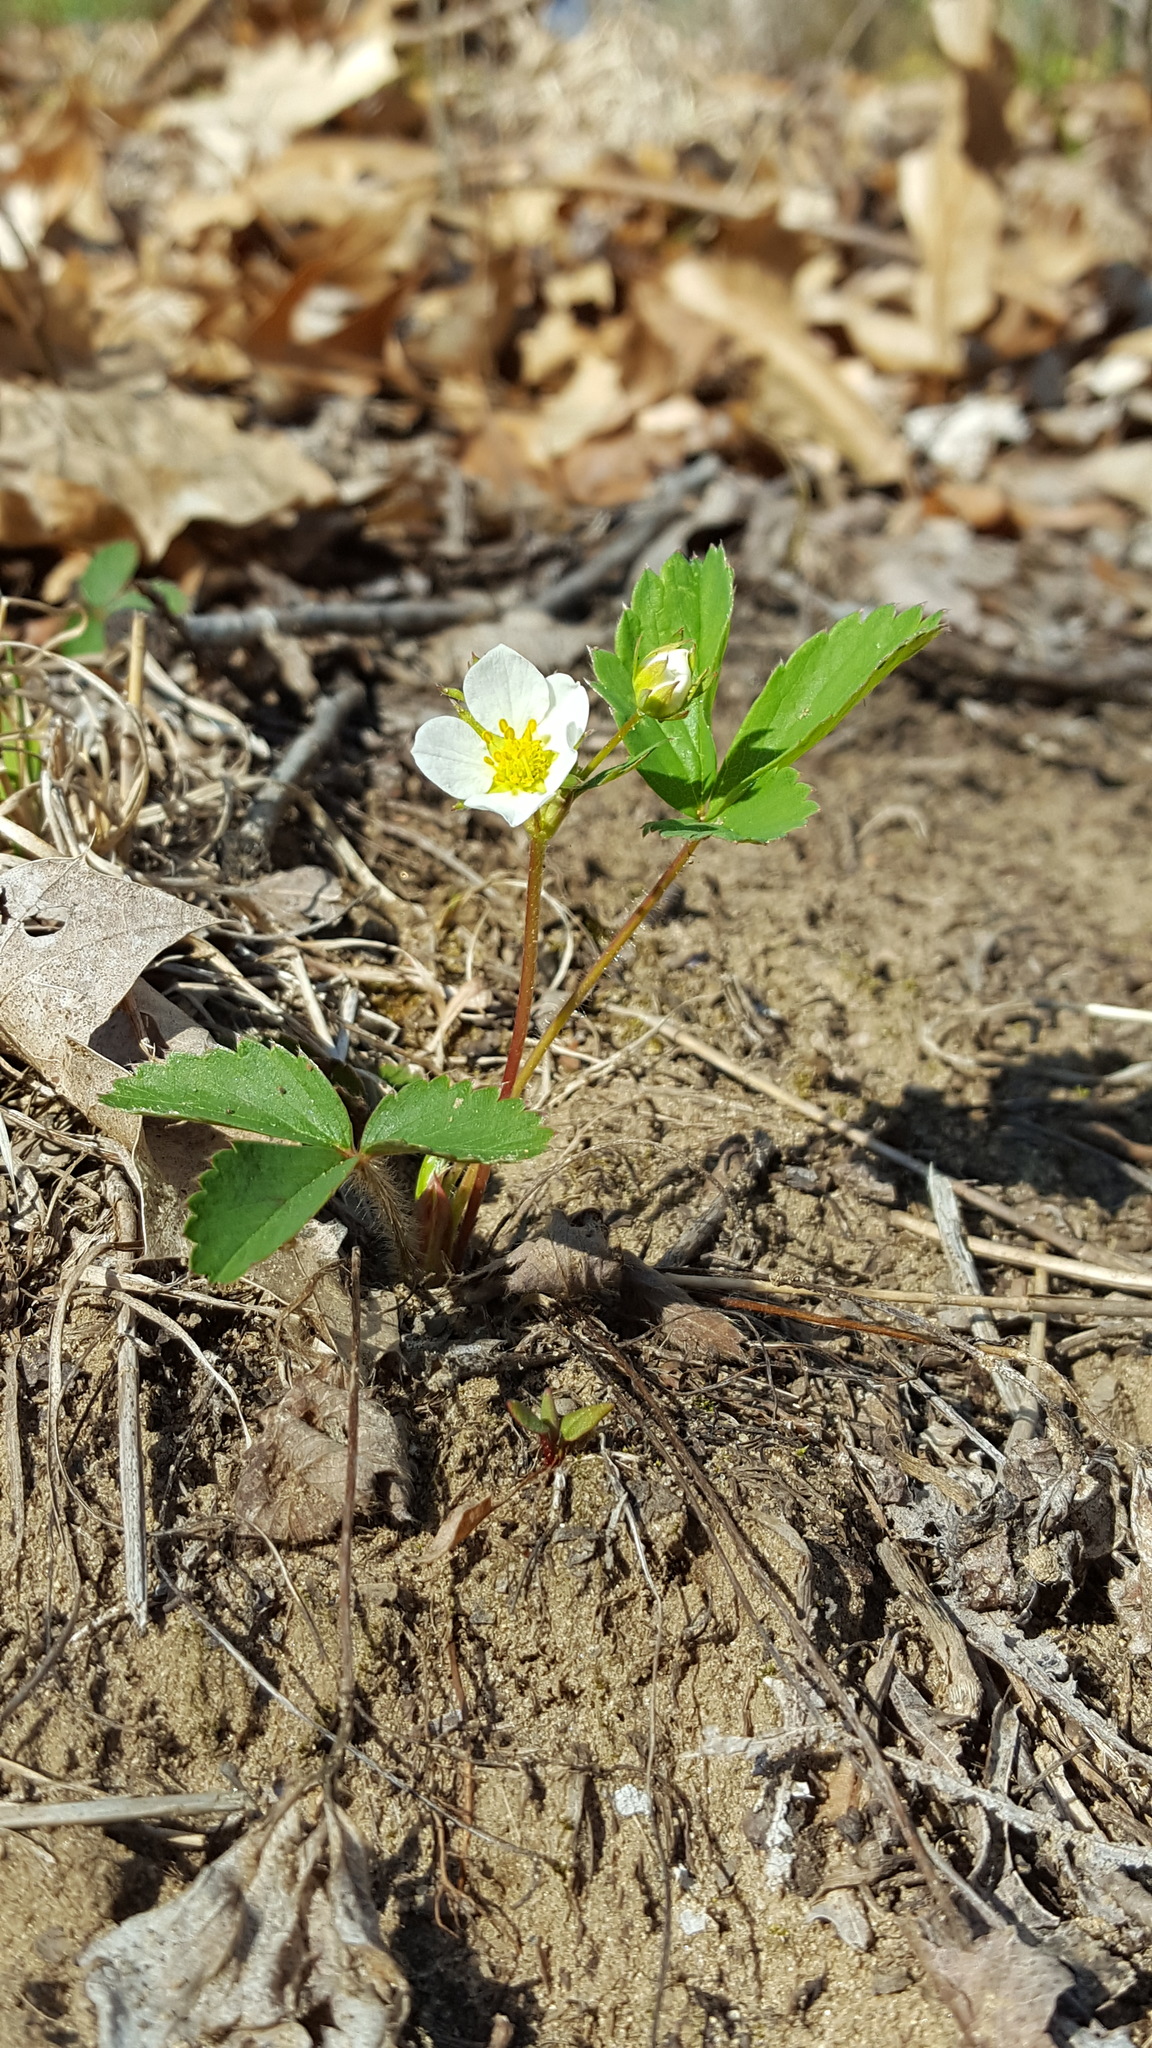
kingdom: Plantae
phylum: Tracheophyta
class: Magnoliopsida
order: Rosales
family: Rosaceae
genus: Fragaria
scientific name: Fragaria vesca
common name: Wild strawberry
